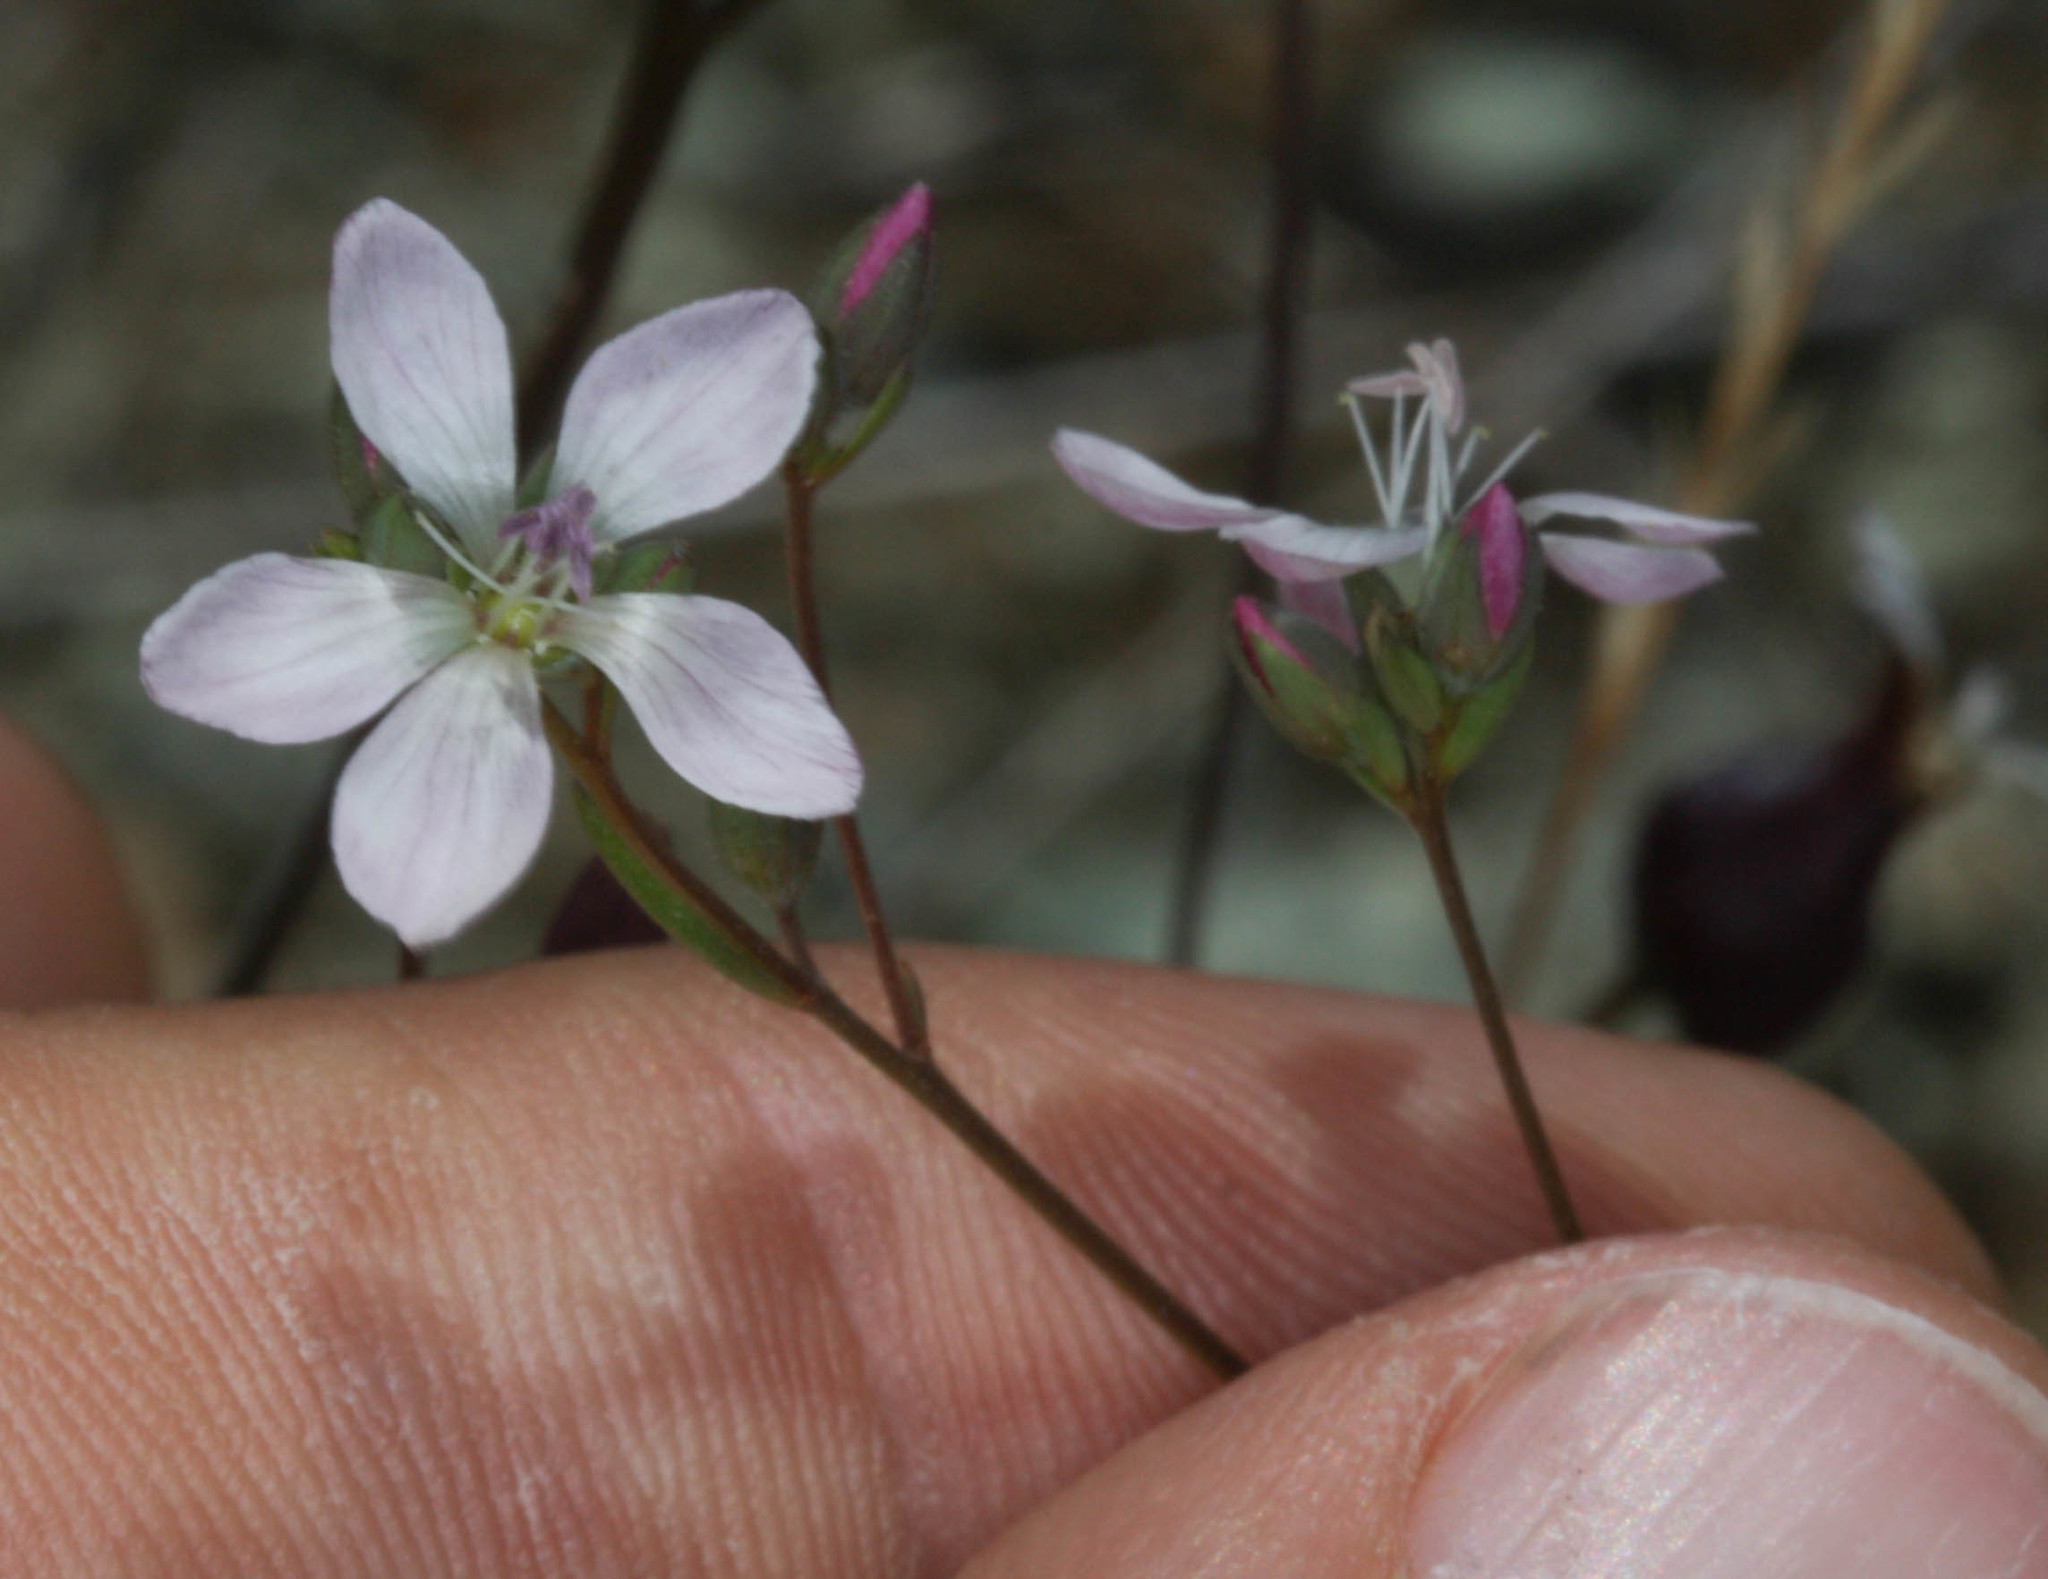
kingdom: Plantae
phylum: Tracheophyta
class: Magnoliopsida
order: Malpighiales
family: Linaceae
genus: Hesperolinon
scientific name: Hesperolinon congestum
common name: Marin dwarf-flax
